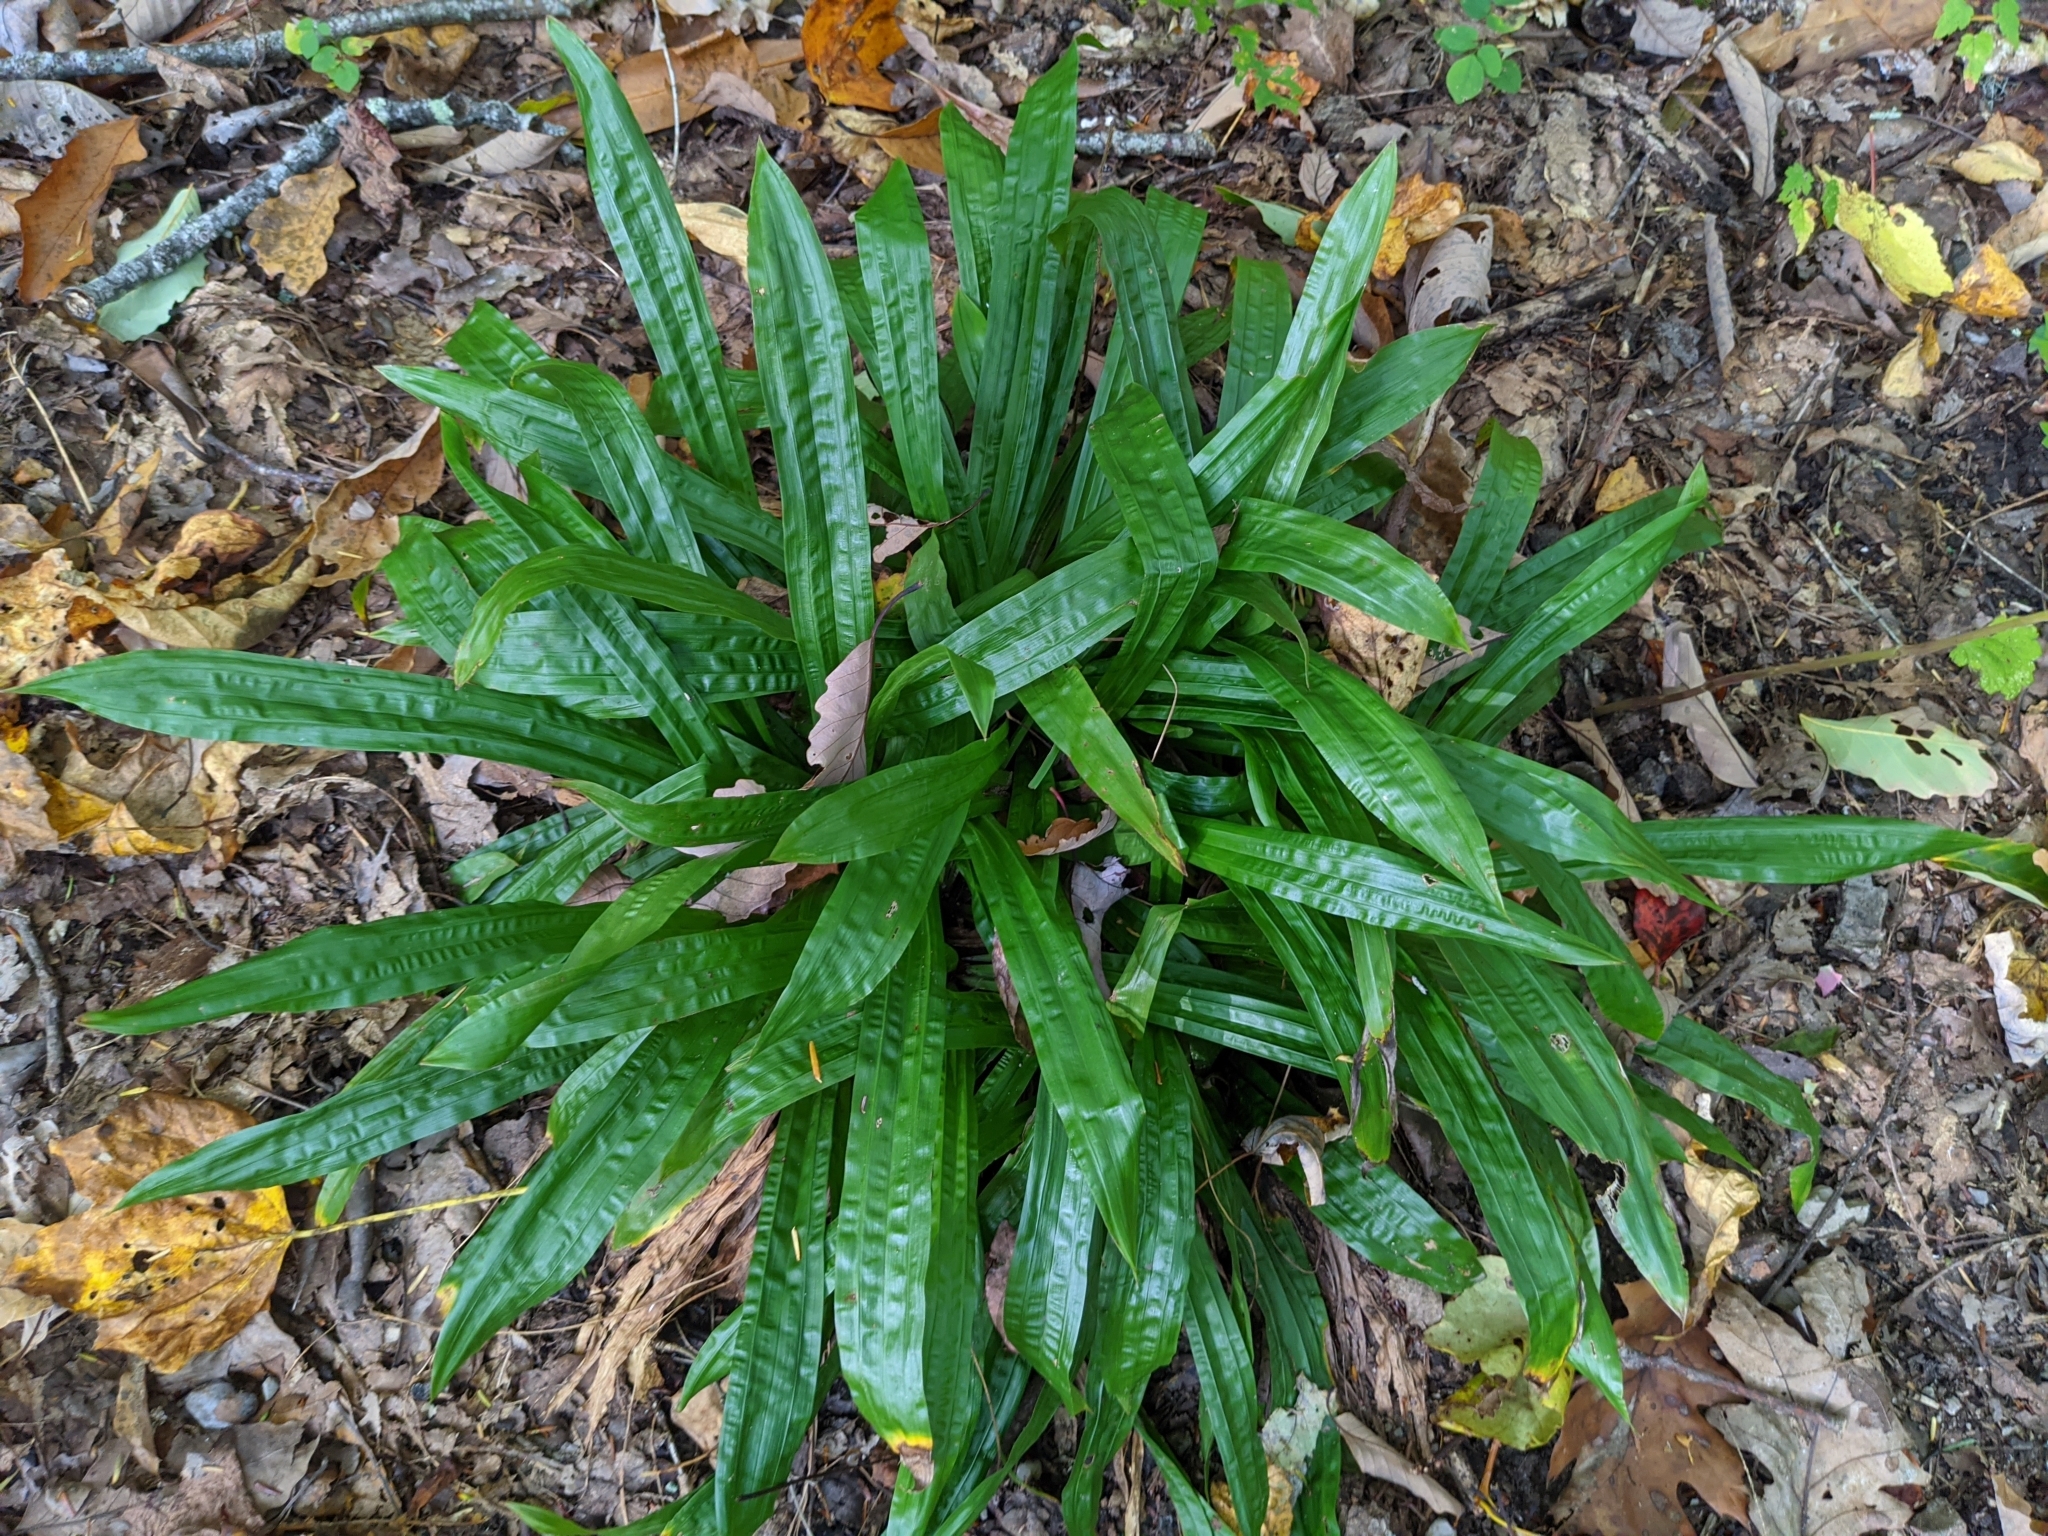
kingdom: Plantae
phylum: Tracheophyta
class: Liliopsida
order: Poales
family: Cyperaceae
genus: Carex
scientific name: Carex plantaginea
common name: Plantain-leaved sedge
